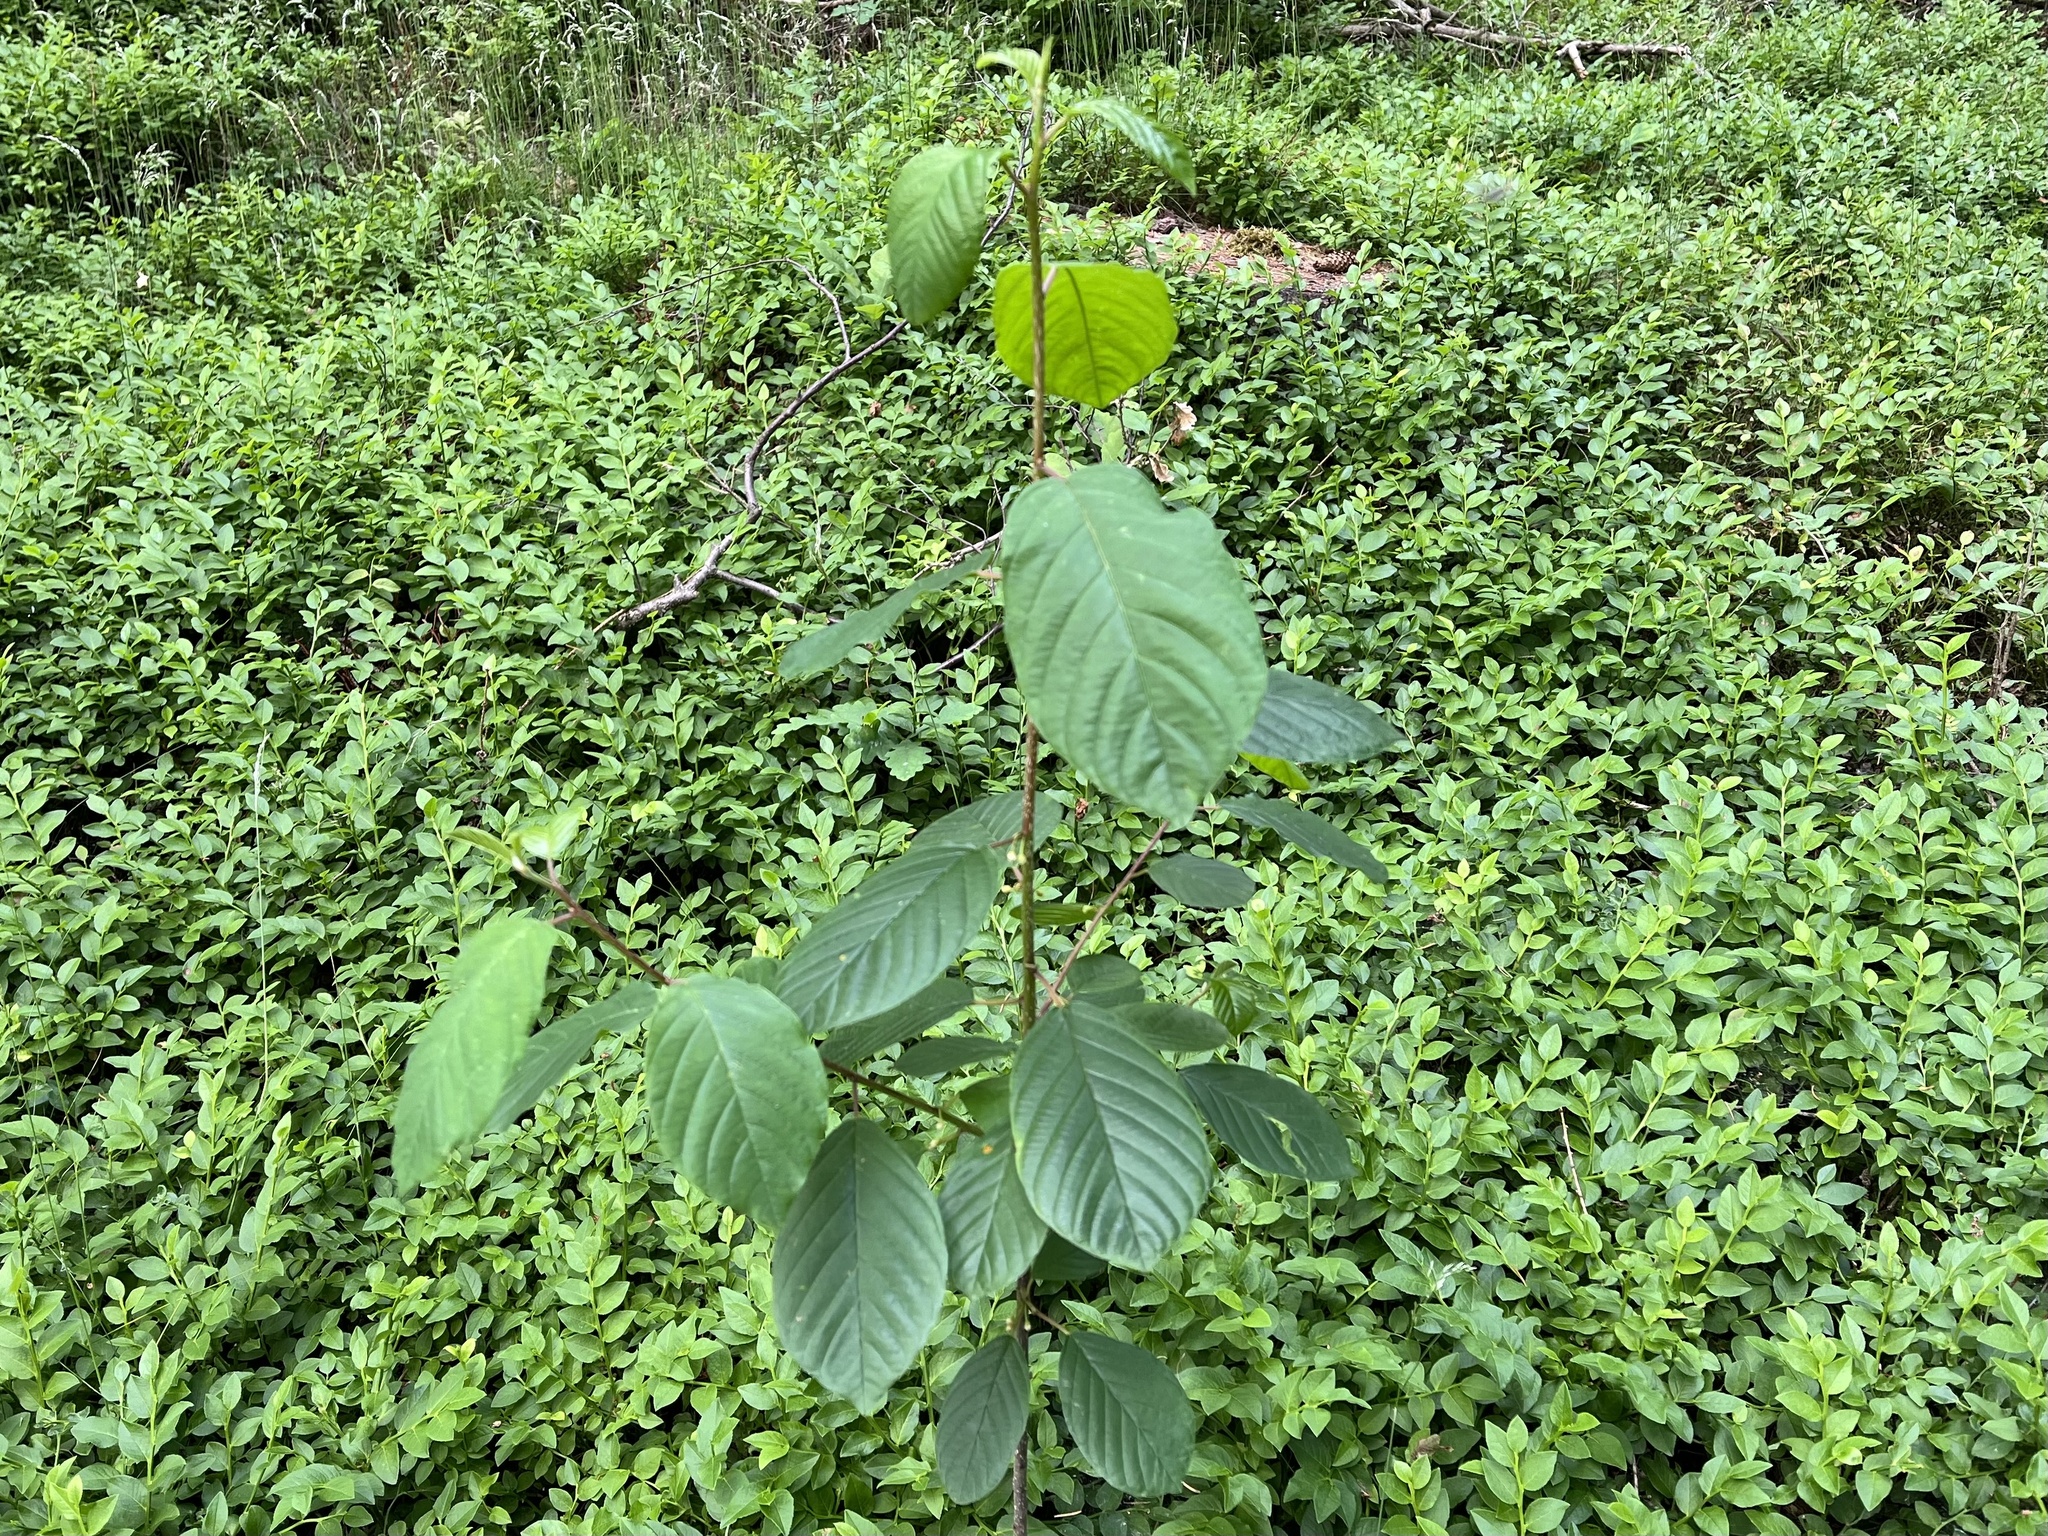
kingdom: Plantae
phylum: Tracheophyta
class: Magnoliopsida
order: Rosales
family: Rhamnaceae
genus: Frangula
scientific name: Frangula alnus
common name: Alder buckthorn
